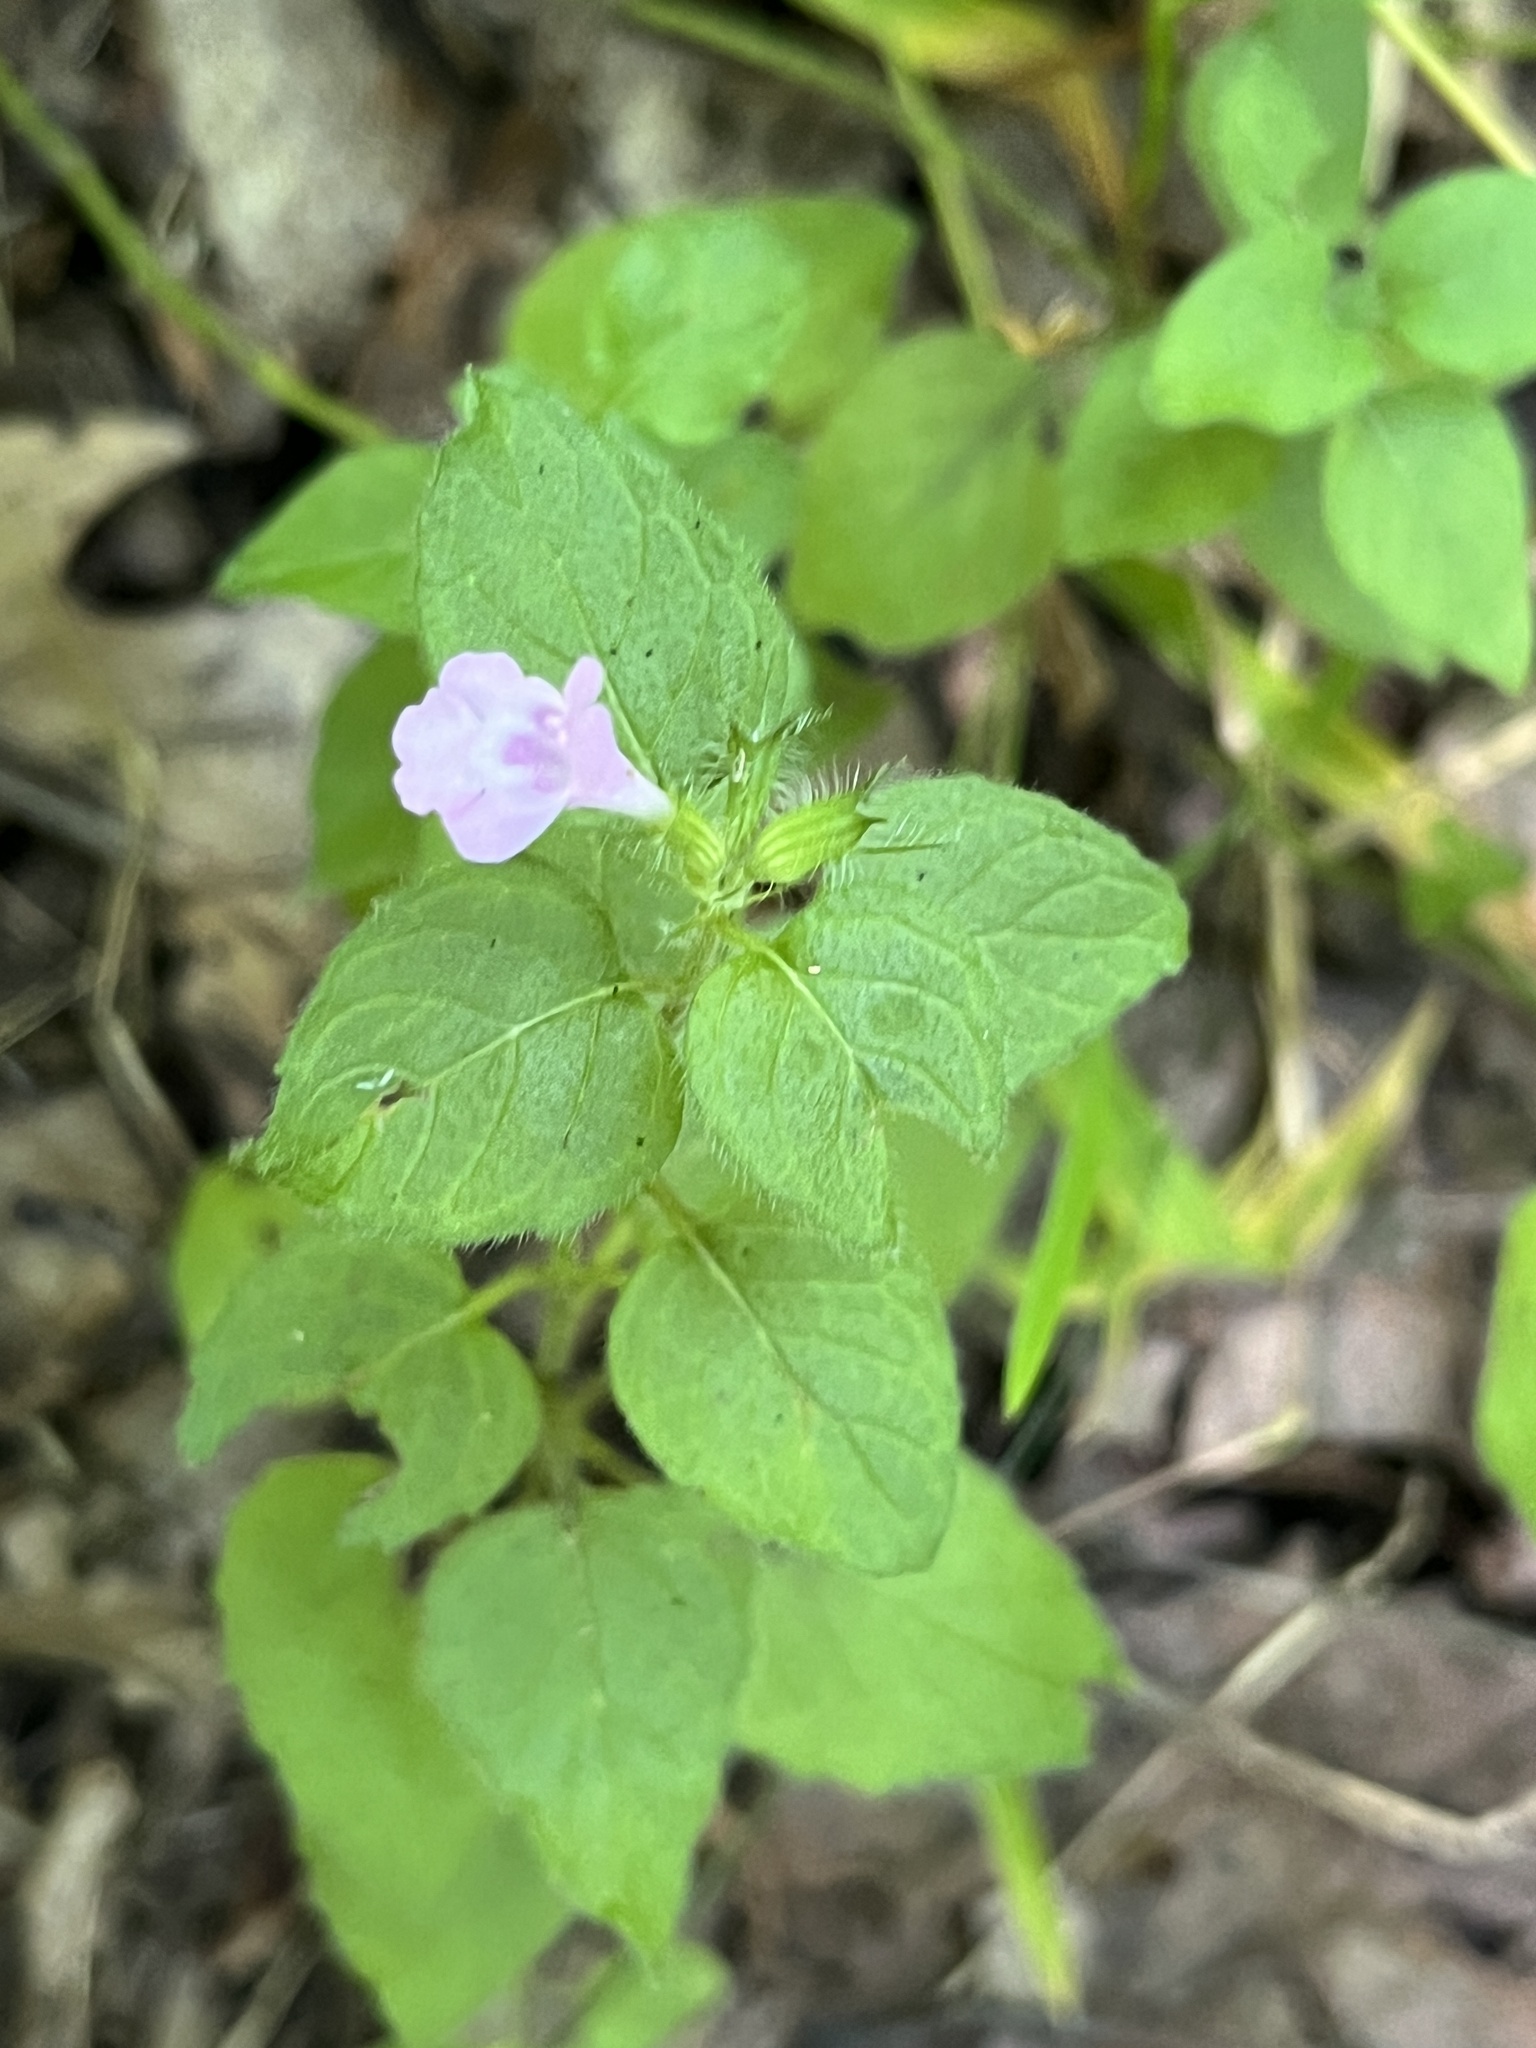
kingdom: Plantae
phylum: Tracheophyta
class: Magnoliopsida
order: Lamiales
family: Lamiaceae
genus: Clinopodium
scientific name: Clinopodium vulgare
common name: Wild basil
